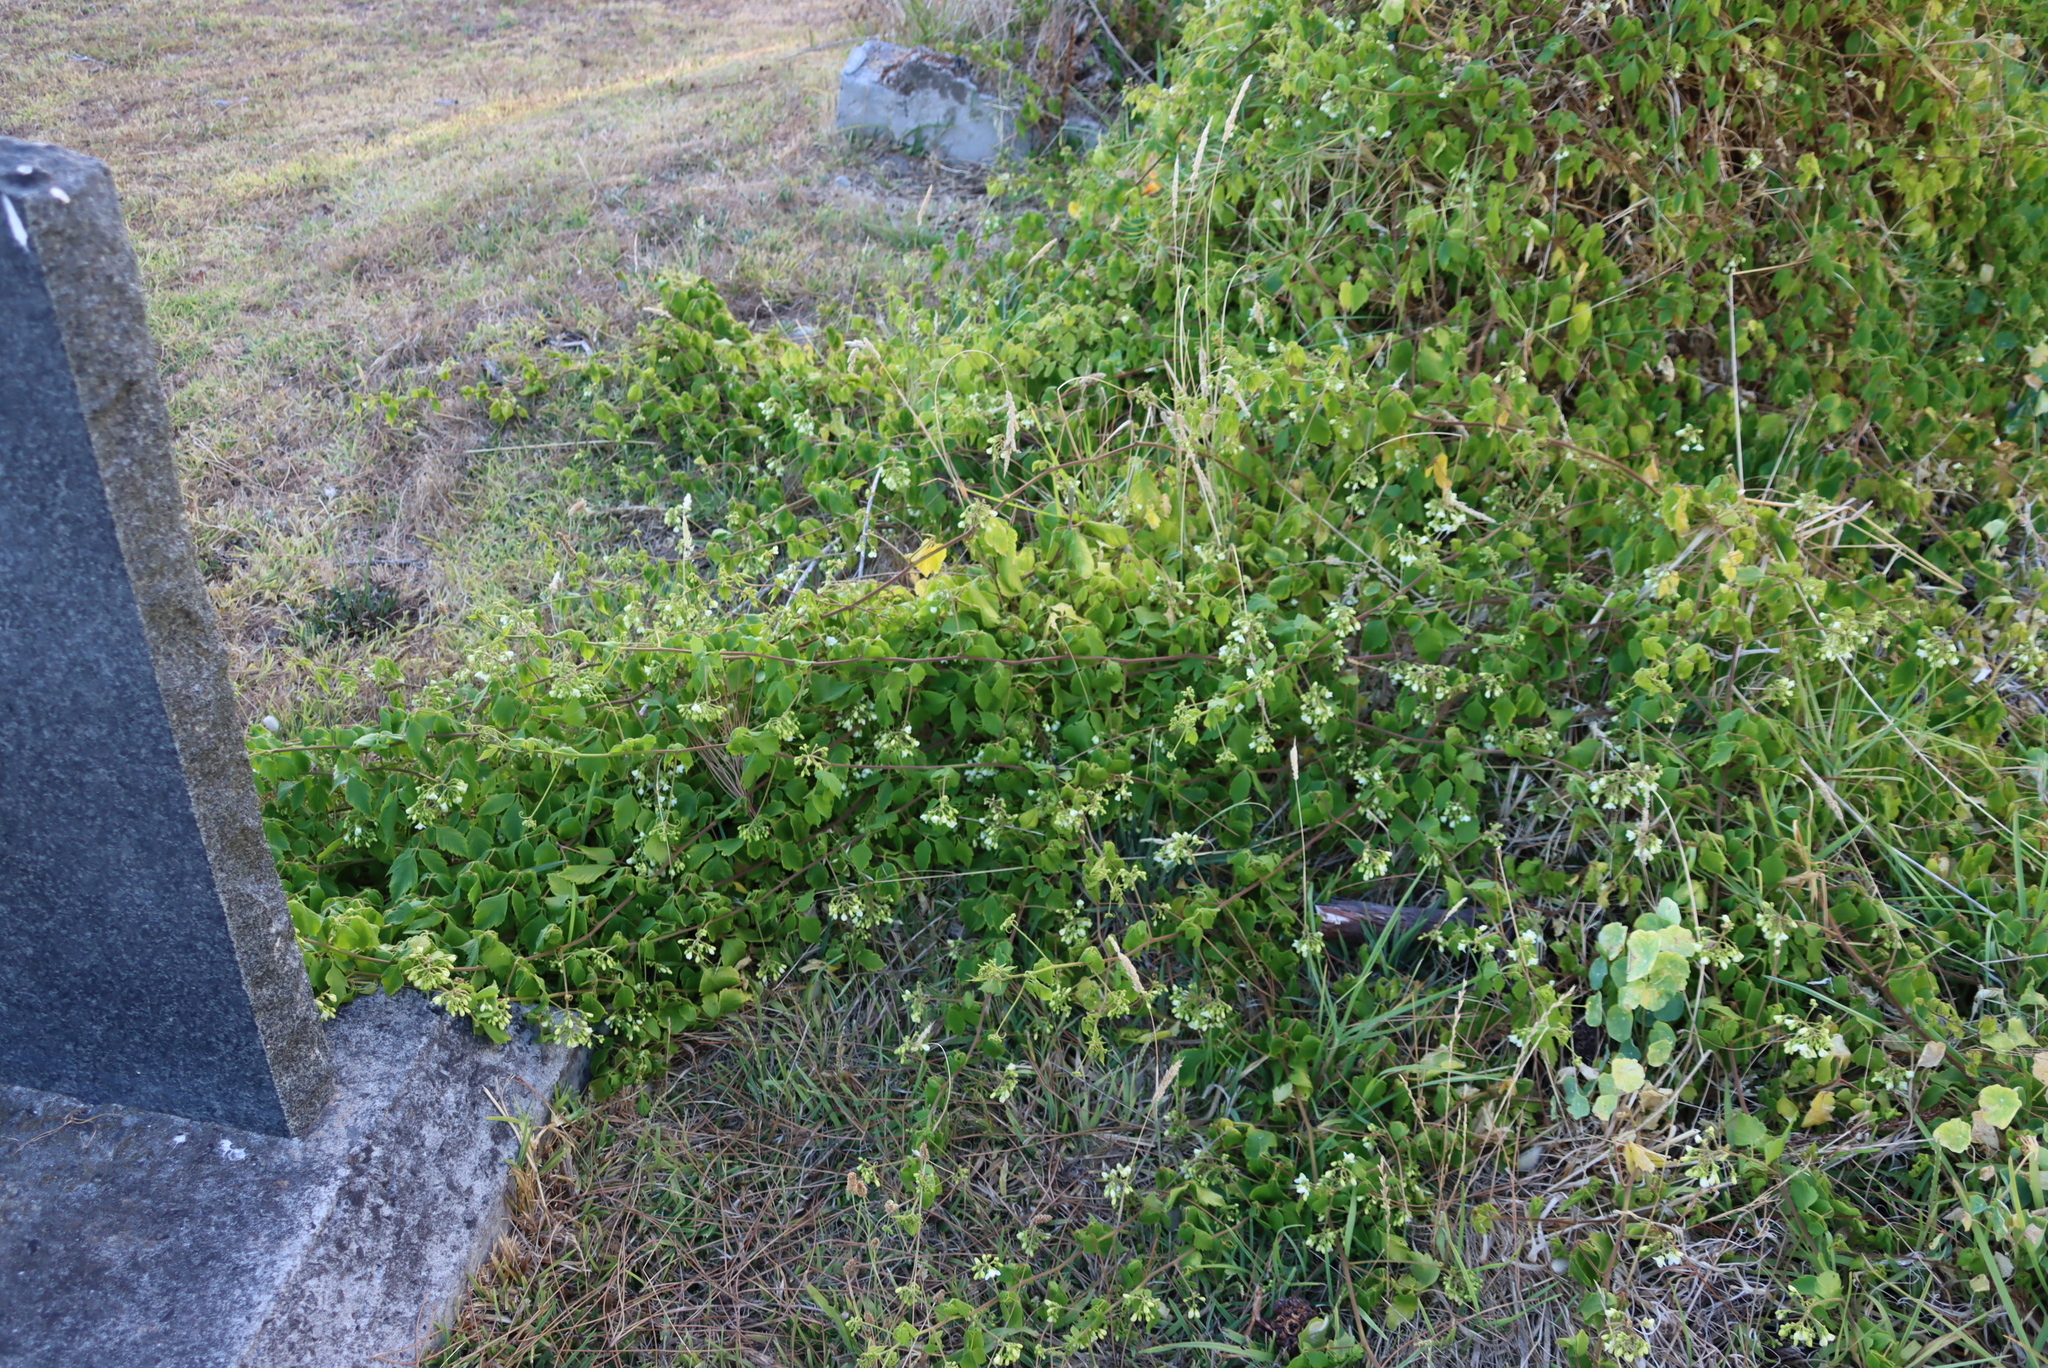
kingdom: Plantae
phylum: Tracheophyta
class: Magnoliopsida
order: Sapindales
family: Sapindaceae
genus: Cardiospermum
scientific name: Cardiospermum grandiflorum
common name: Balloon vine
